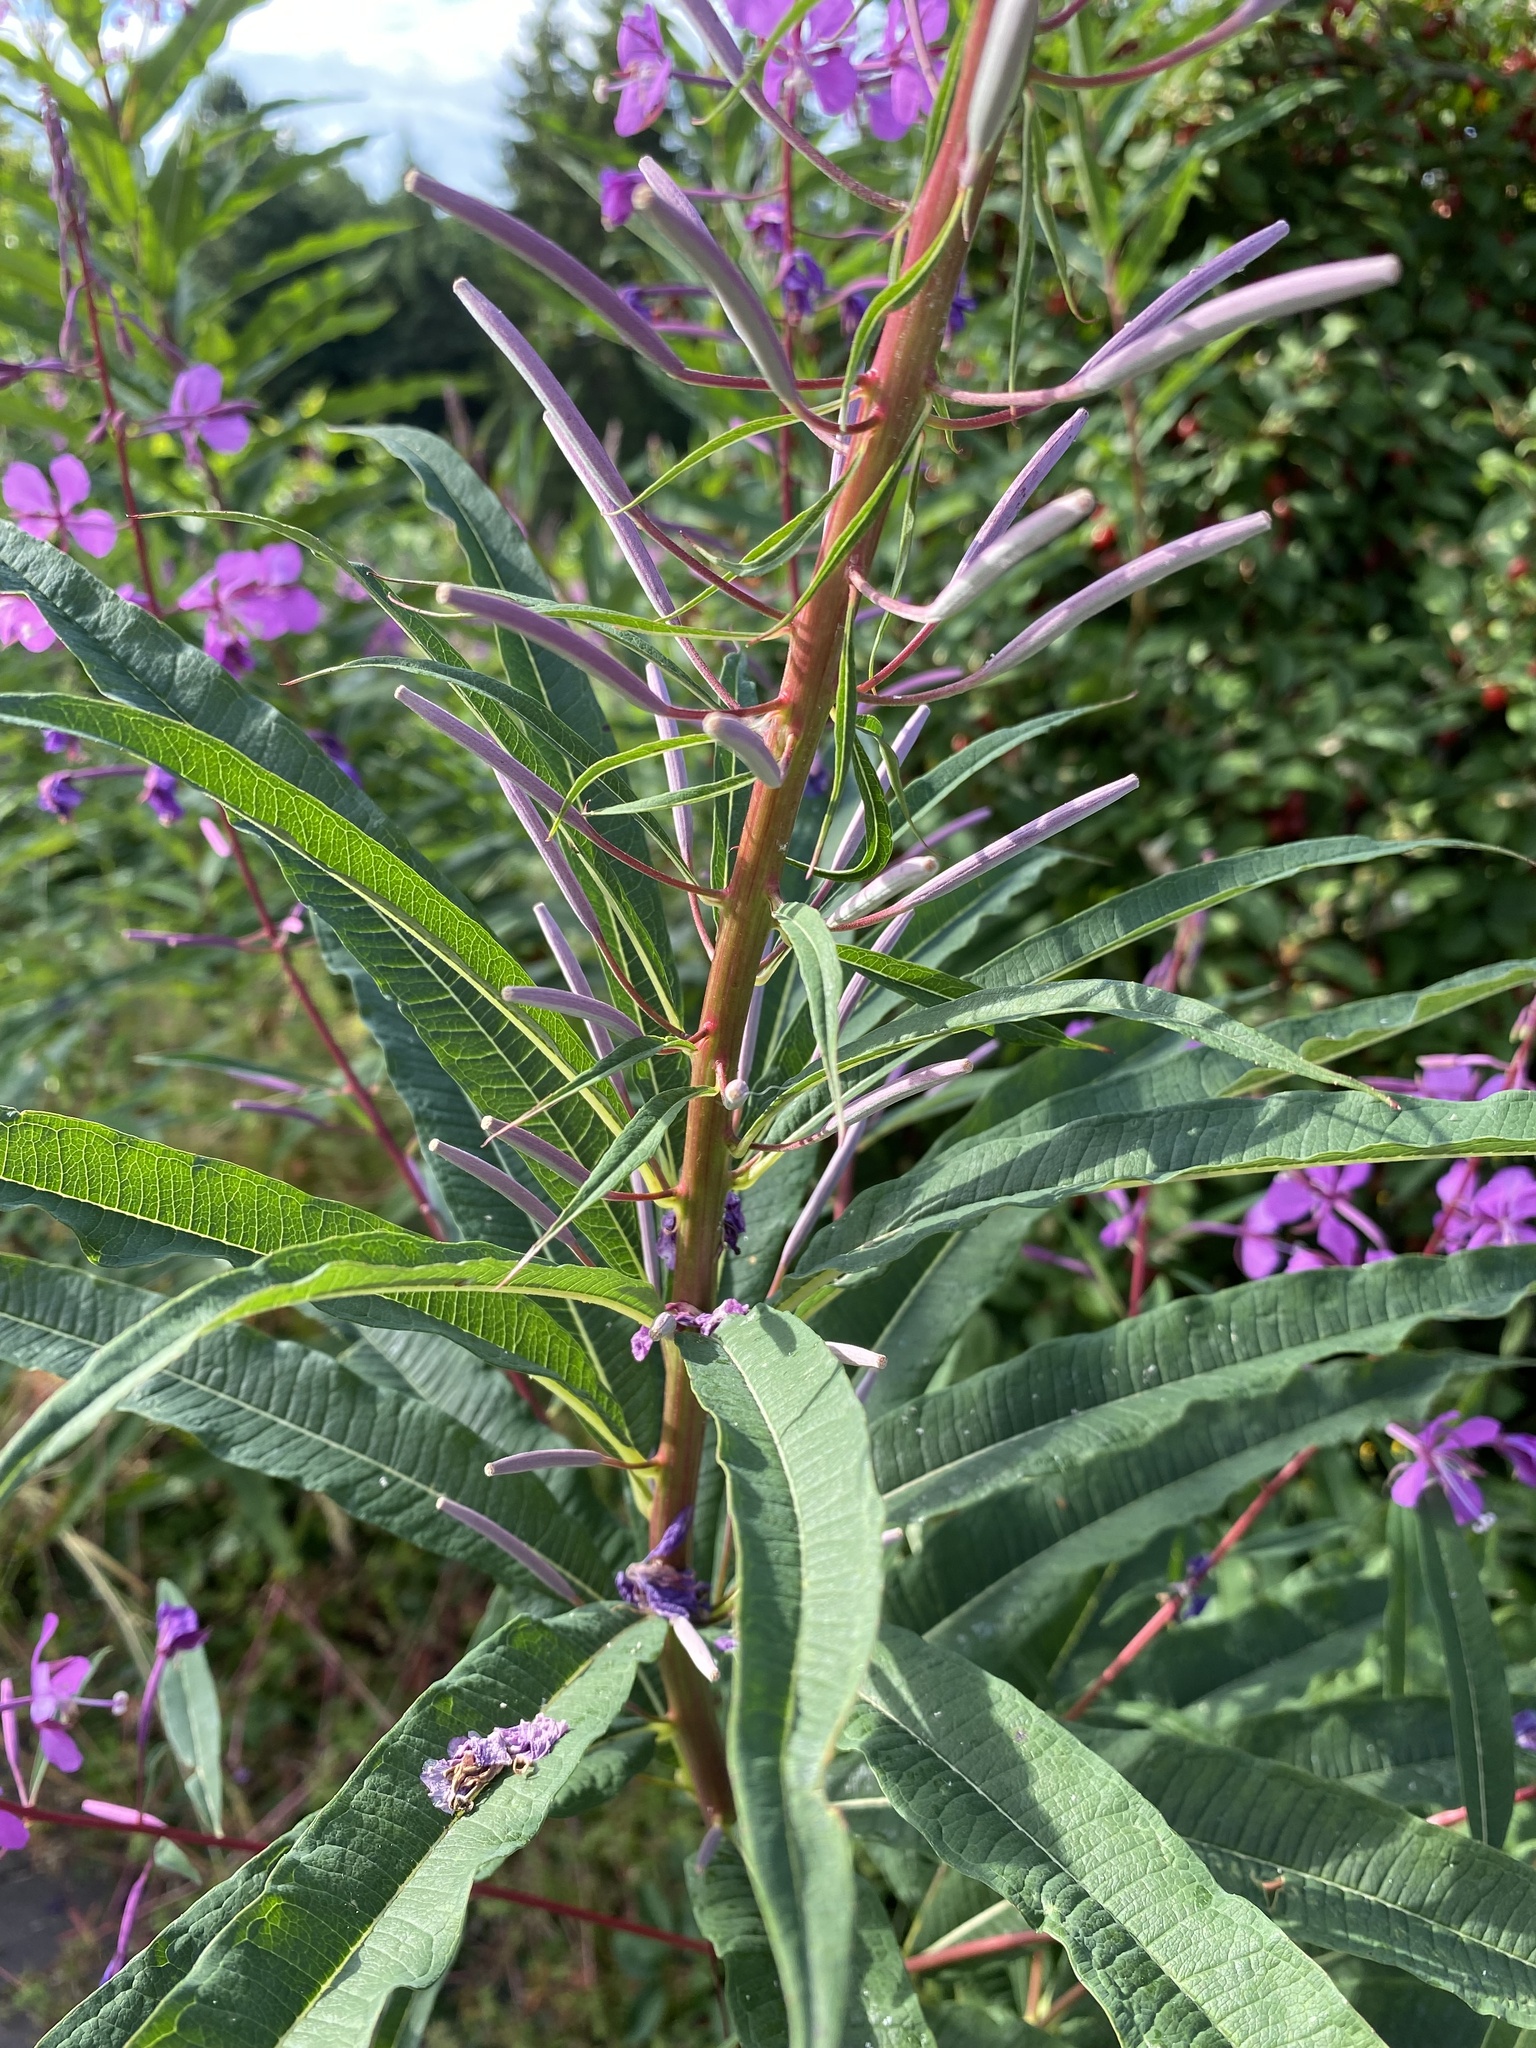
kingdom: Plantae
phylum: Tracheophyta
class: Magnoliopsida
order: Myrtales
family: Onagraceae
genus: Chamaenerion
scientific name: Chamaenerion angustifolium
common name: Fireweed
